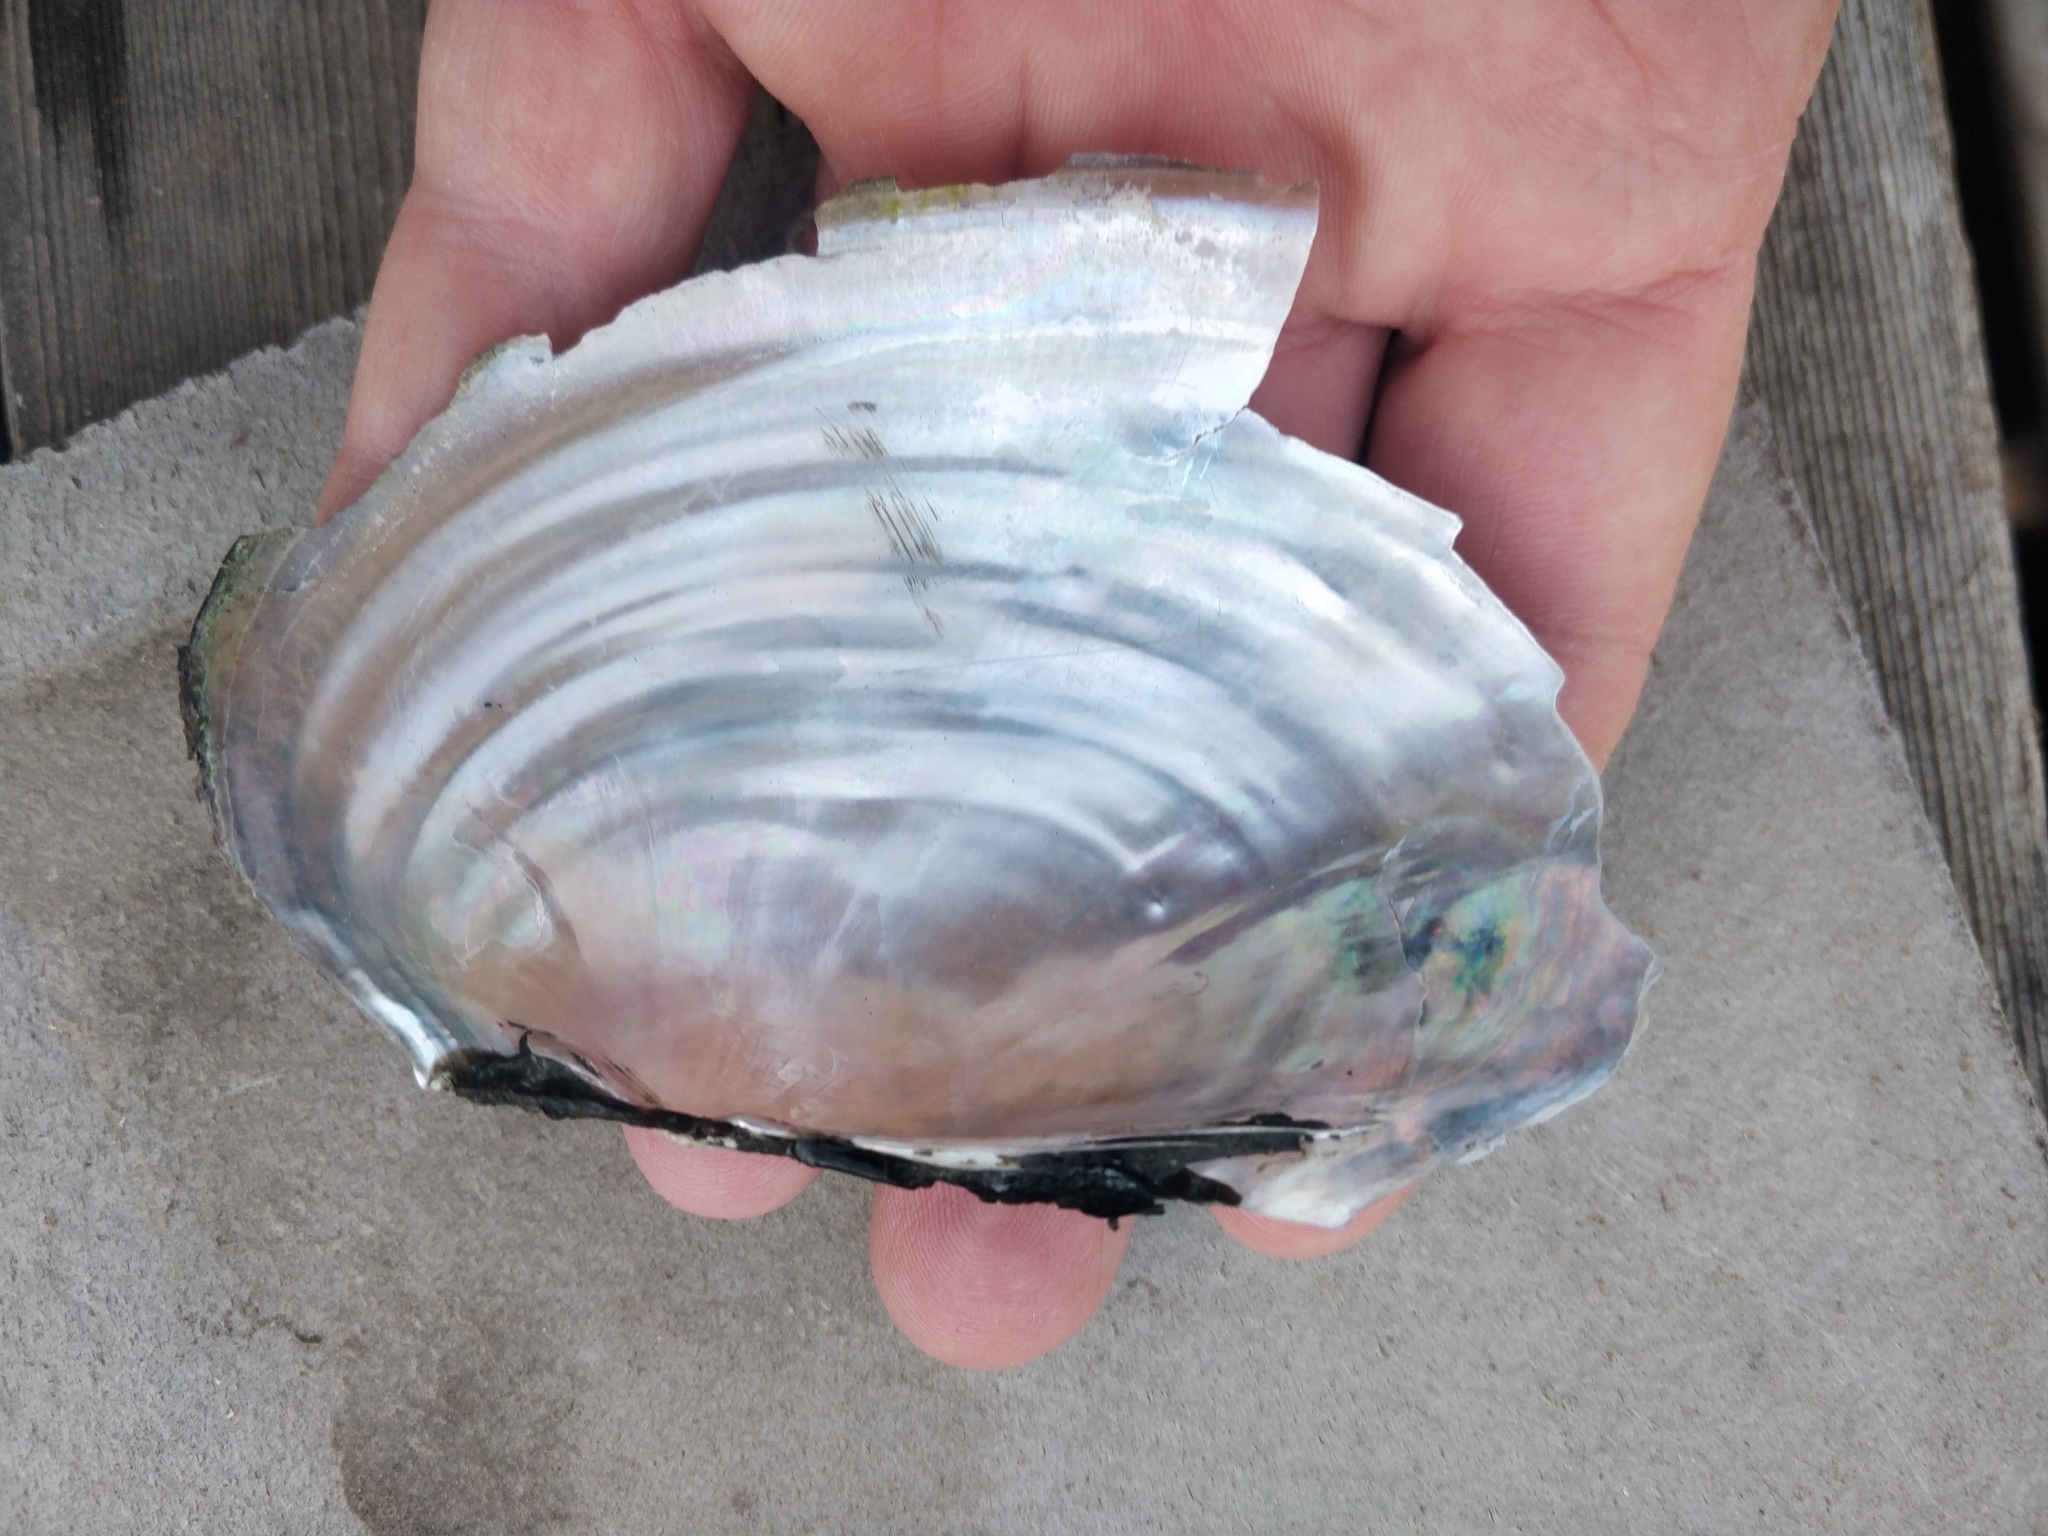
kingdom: Animalia
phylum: Mollusca
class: Bivalvia
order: Unionida
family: Unionidae
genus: Potamilus
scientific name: Potamilus fragilis
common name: Fragile papershell
